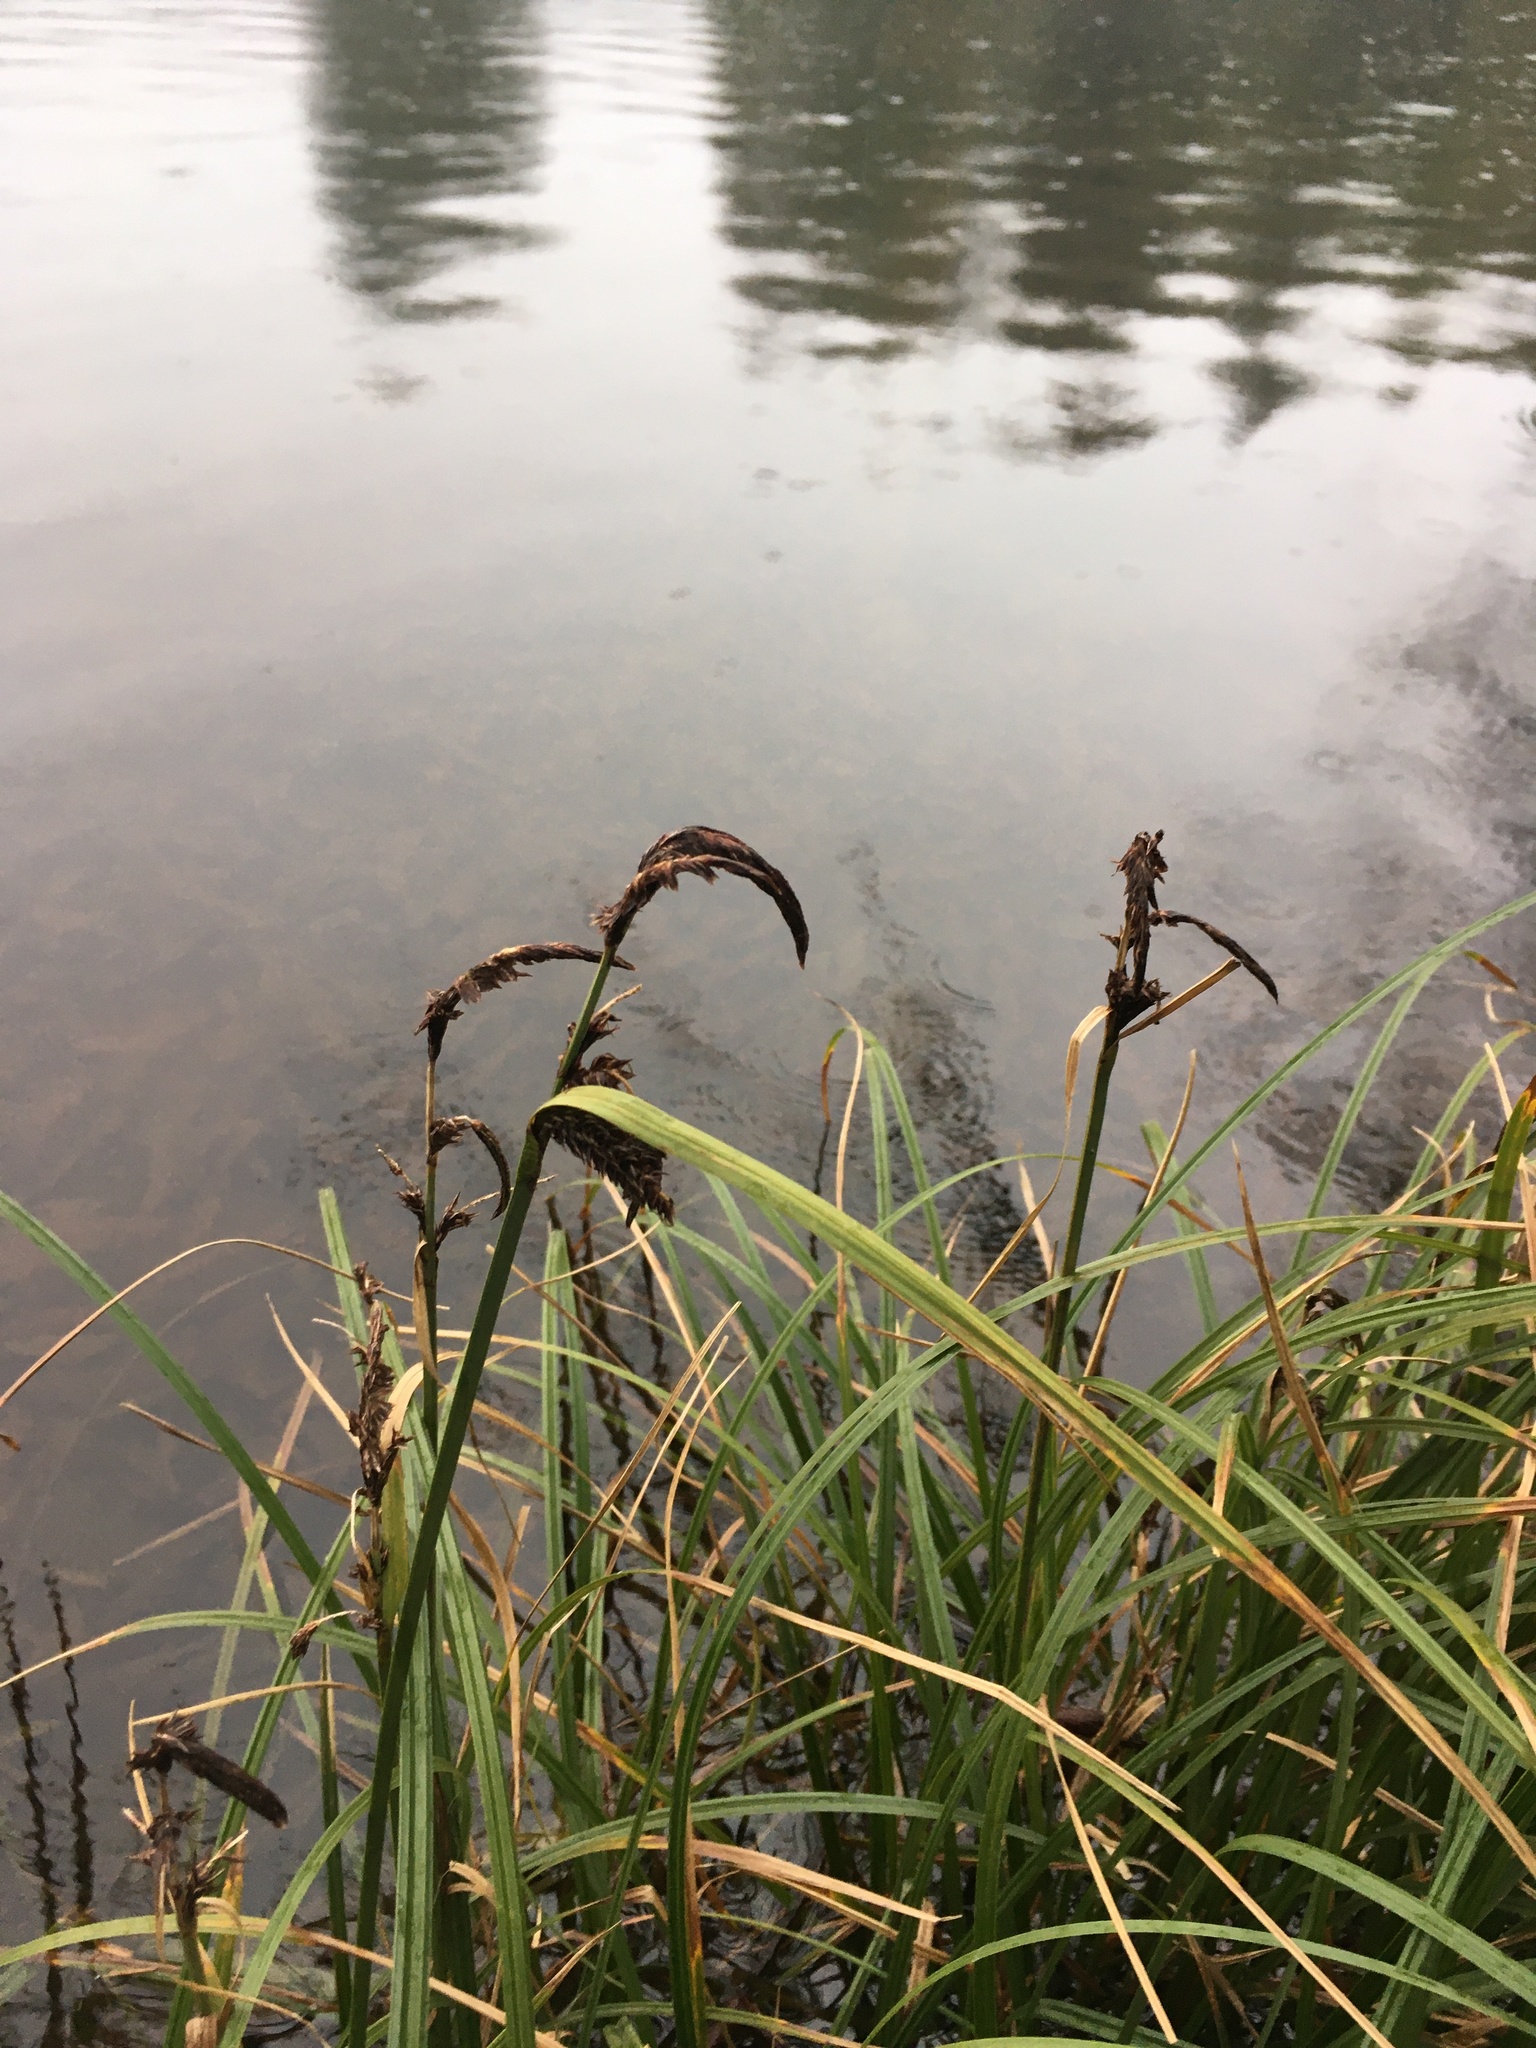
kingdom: Plantae
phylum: Tracheophyta
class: Liliopsida
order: Poales
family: Cyperaceae
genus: Carex
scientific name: Carex obnupta
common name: Slough sedge
